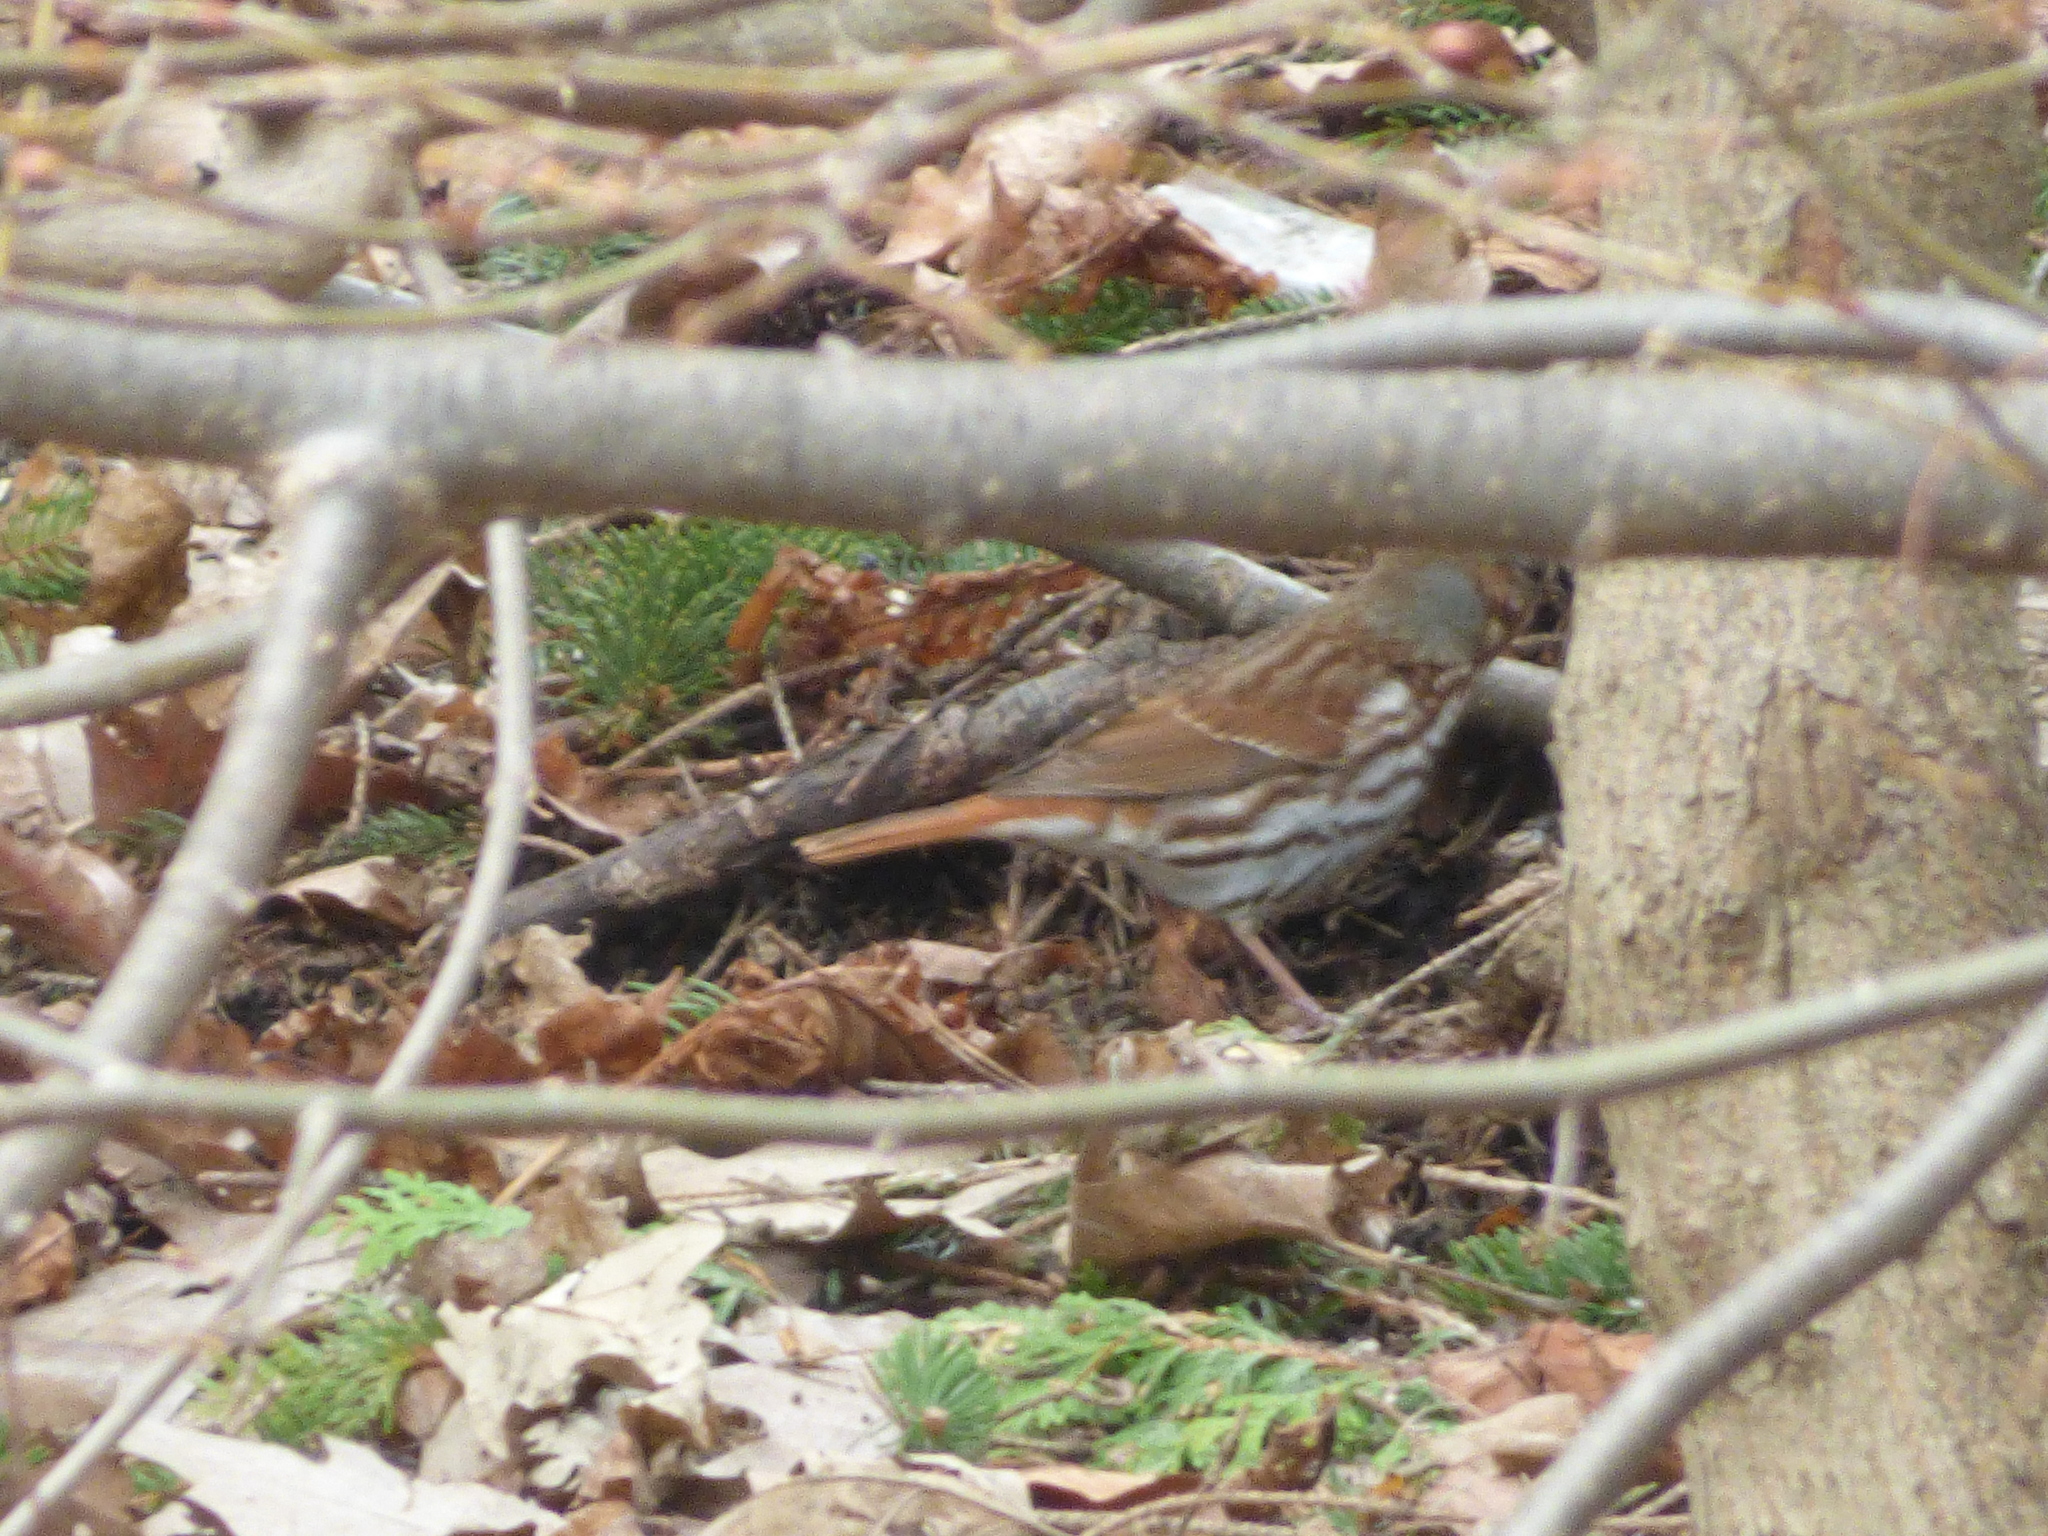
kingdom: Animalia
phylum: Chordata
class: Aves
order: Passeriformes
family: Passerellidae
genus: Passerella
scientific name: Passerella iliaca
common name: Fox sparrow
